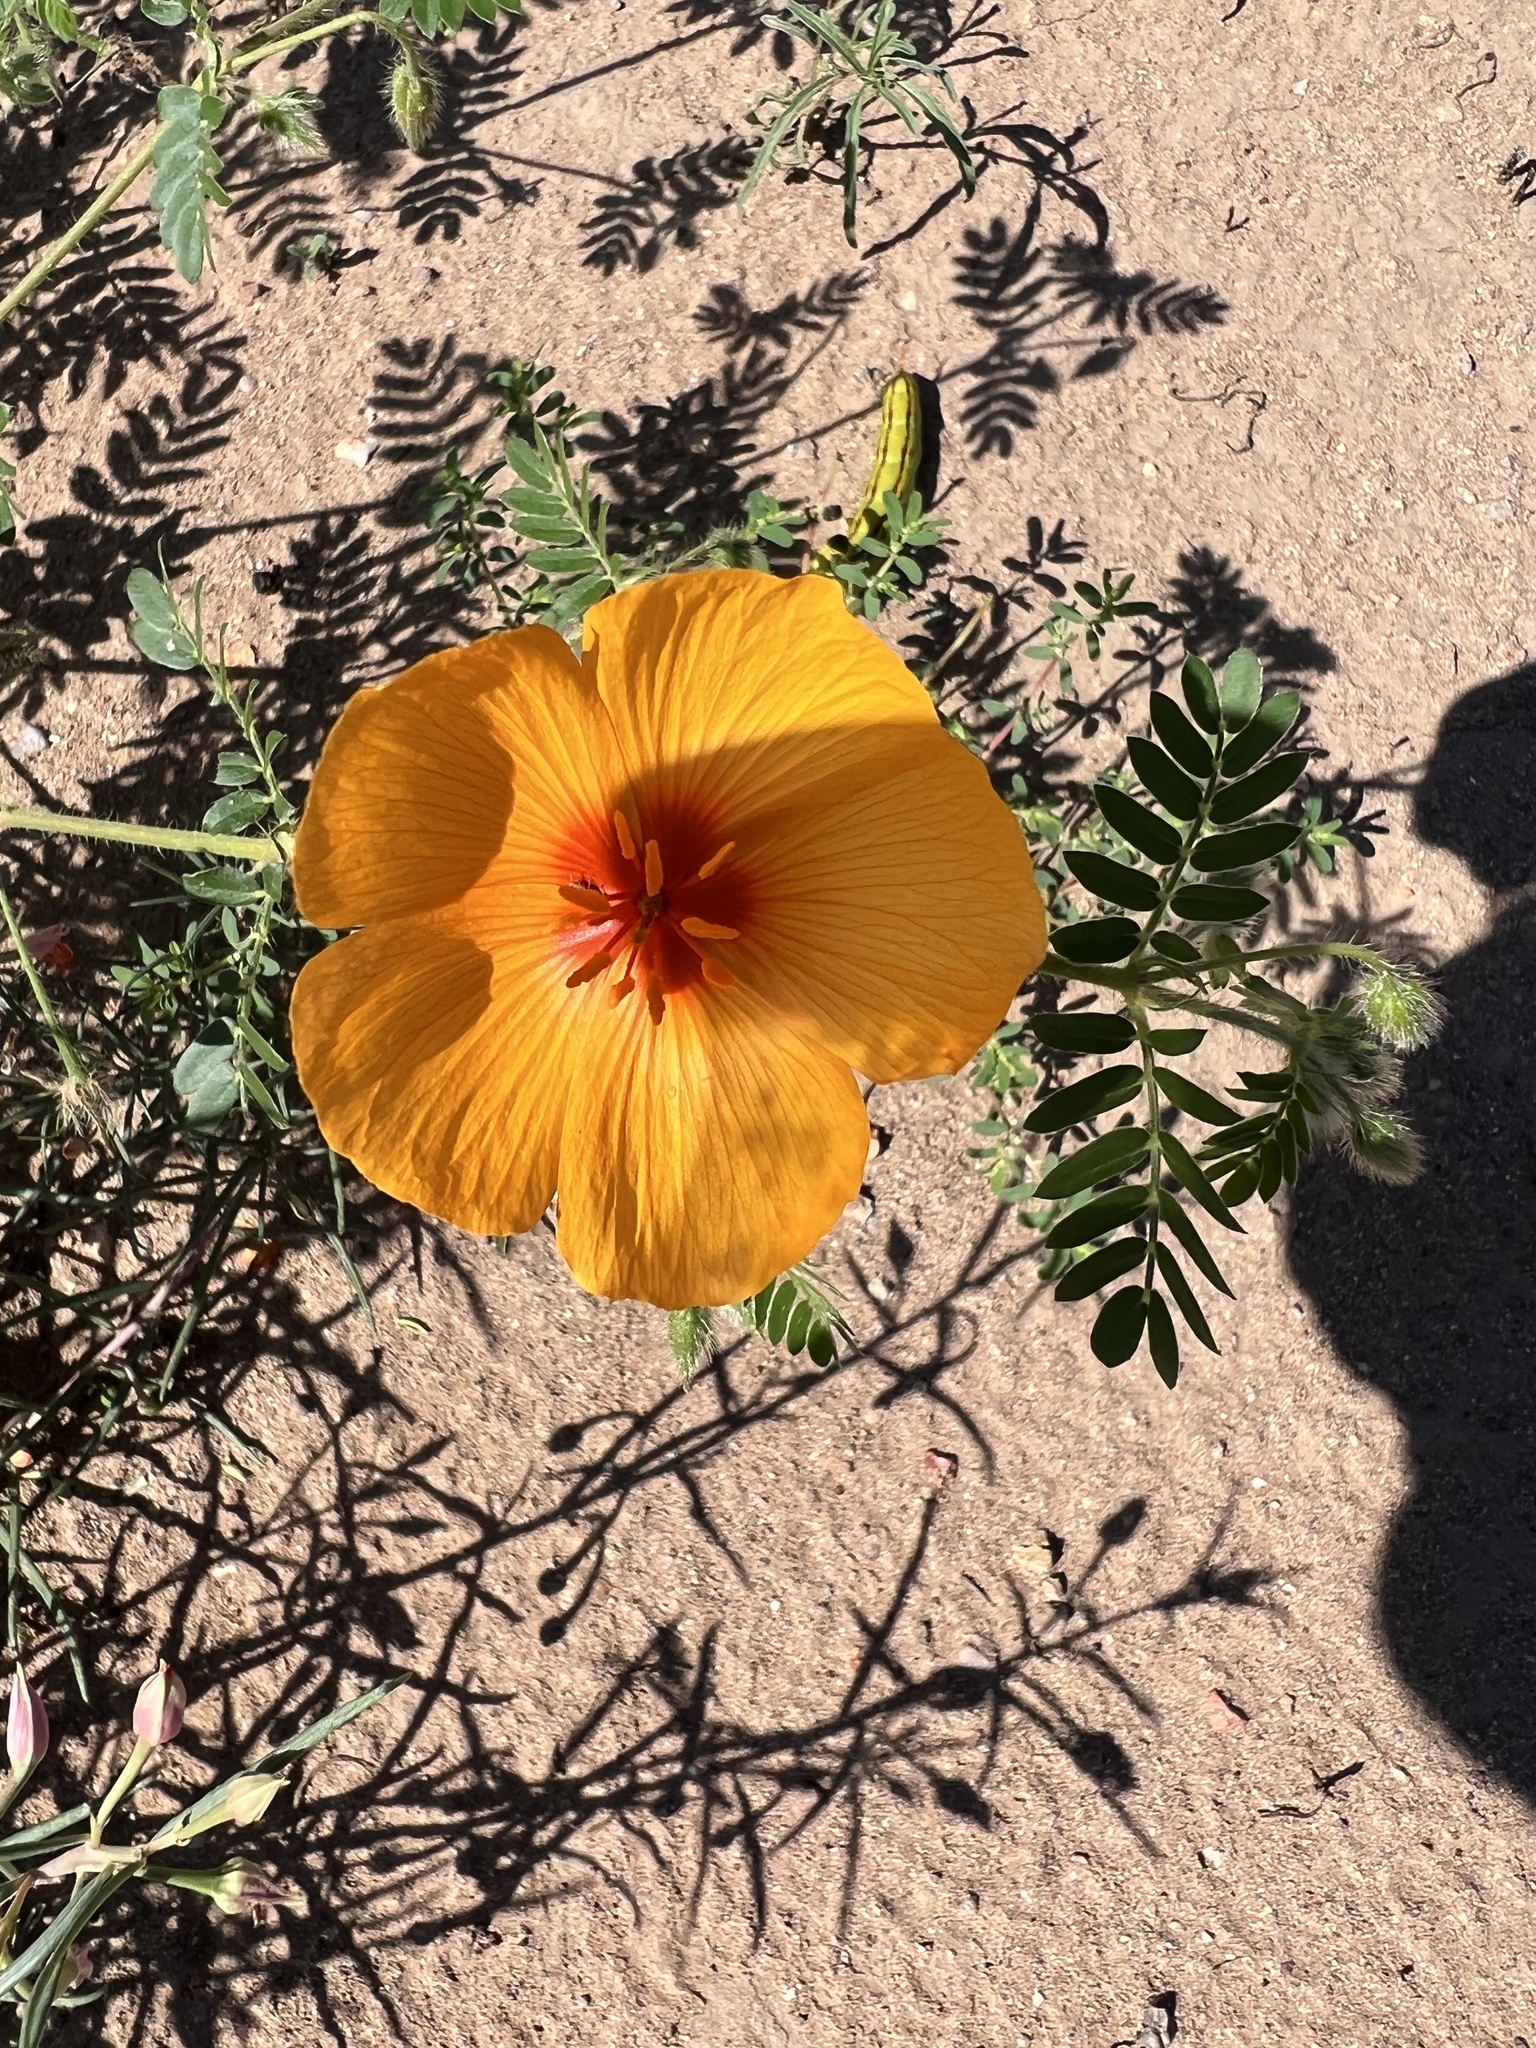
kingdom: Plantae
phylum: Tracheophyta
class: Magnoliopsida
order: Zygophyllales
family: Zygophyllaceae
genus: Kallstroemia
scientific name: Kallstroemia grandiflora
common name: Arizona-poppy
